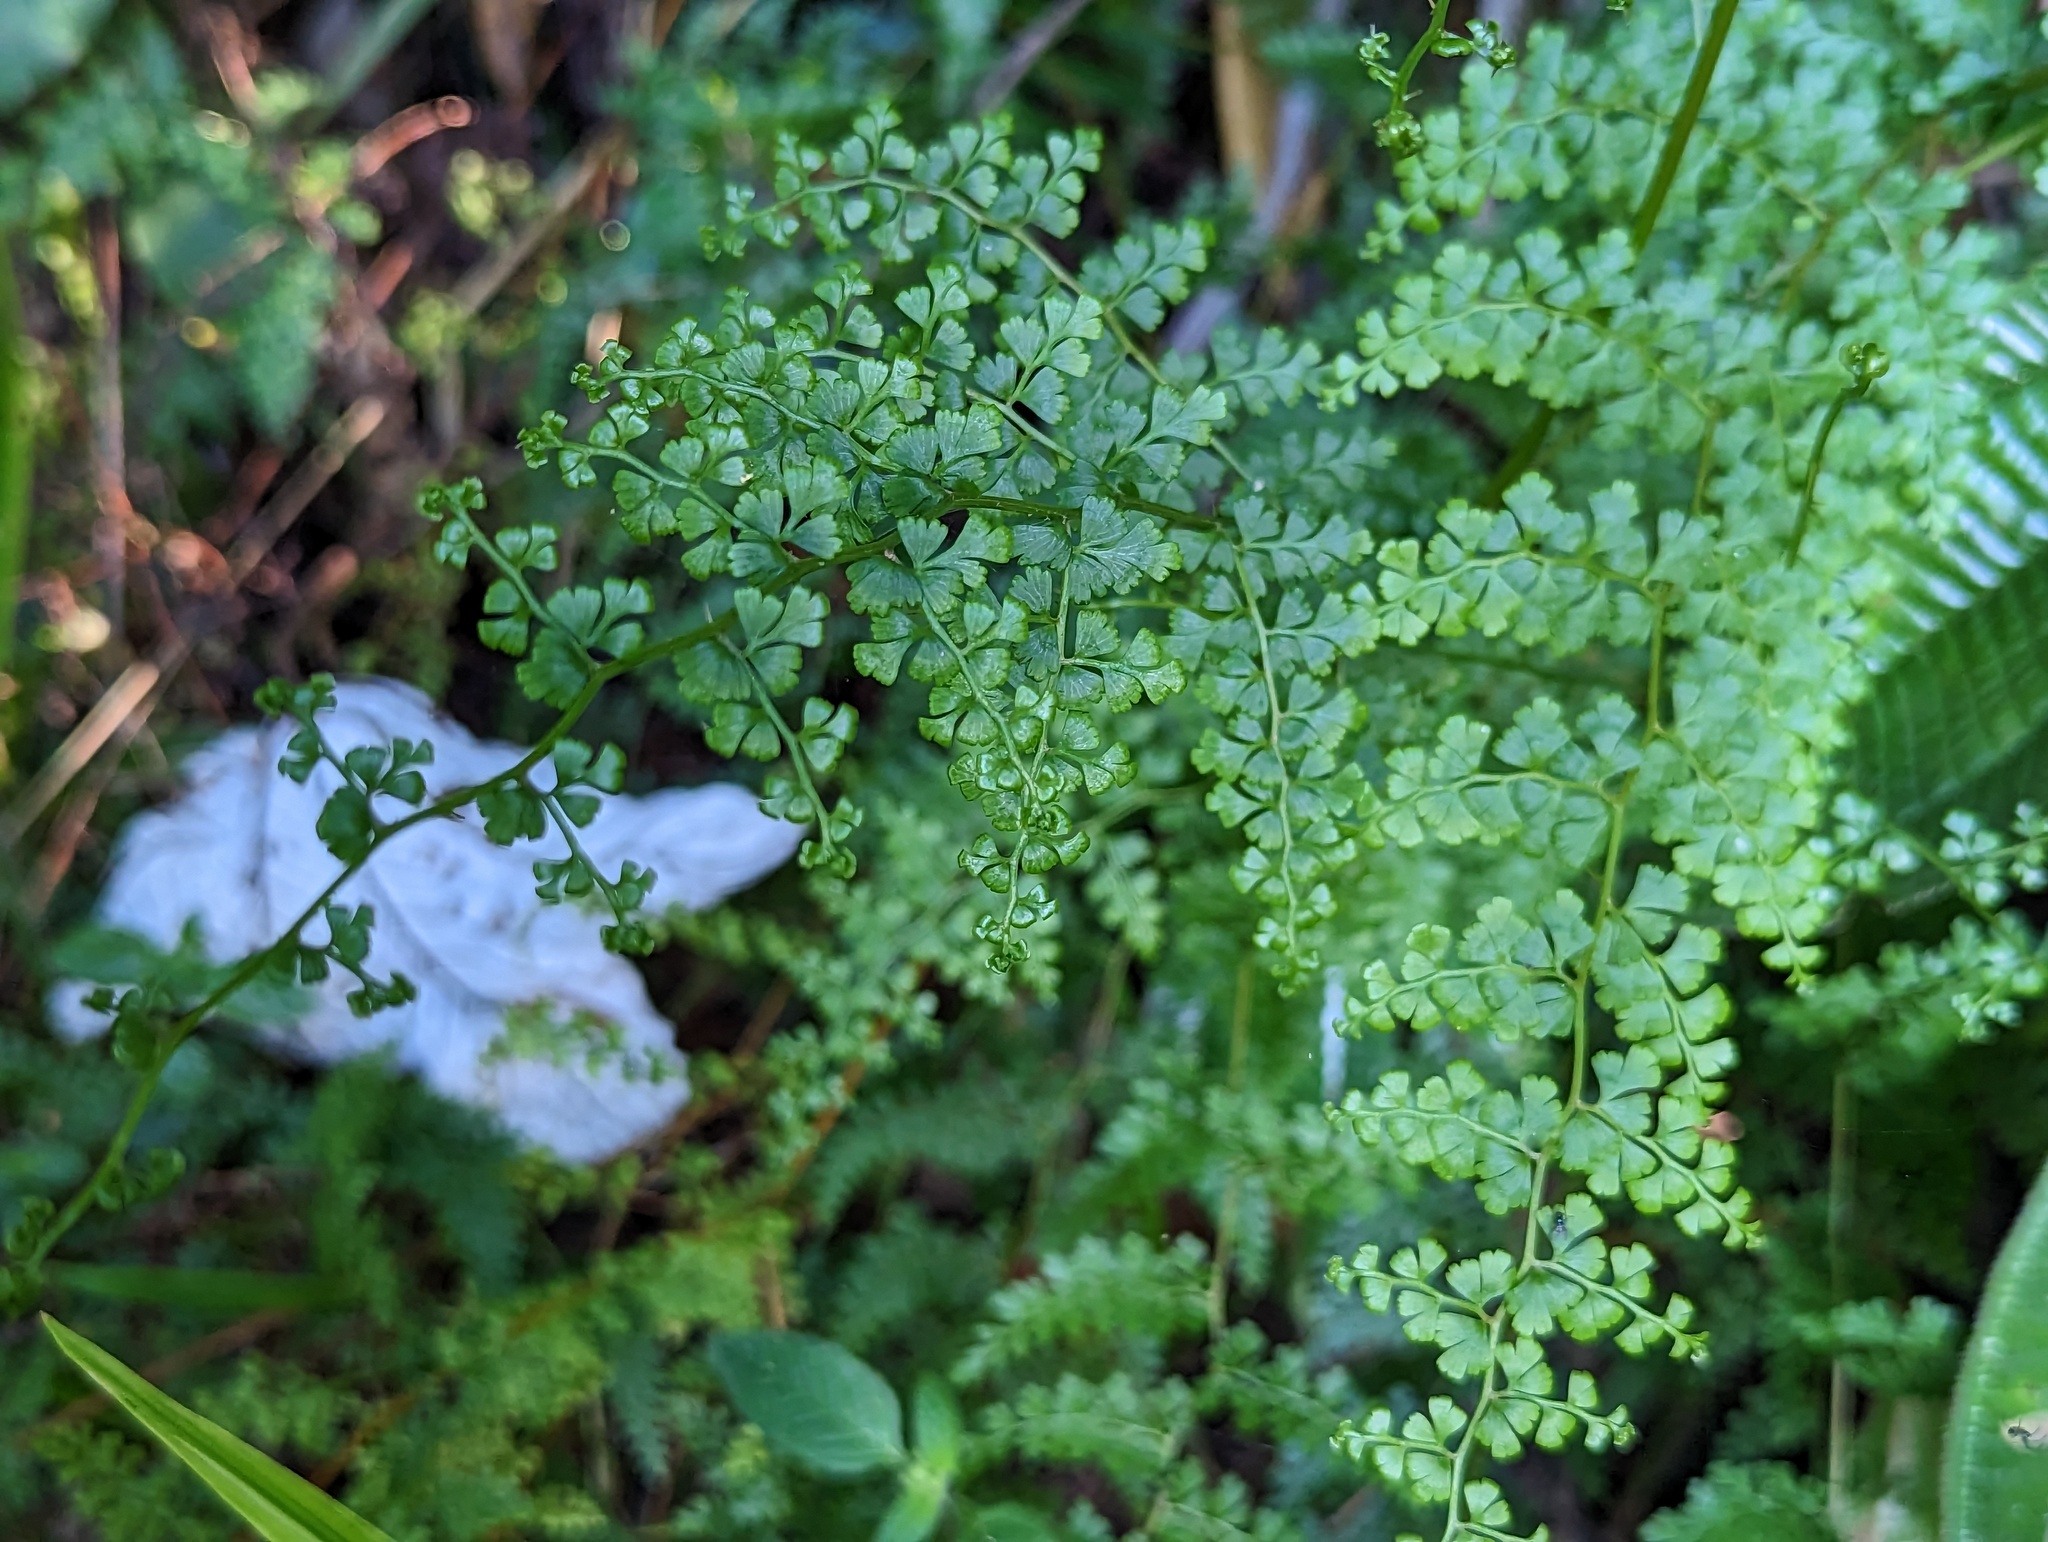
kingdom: Plantae
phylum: Tracheophyta
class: Polypodiopsida
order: Polypodiales
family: Lindsaeaceae
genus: Odontosoria
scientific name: Odontosoria aculeata
